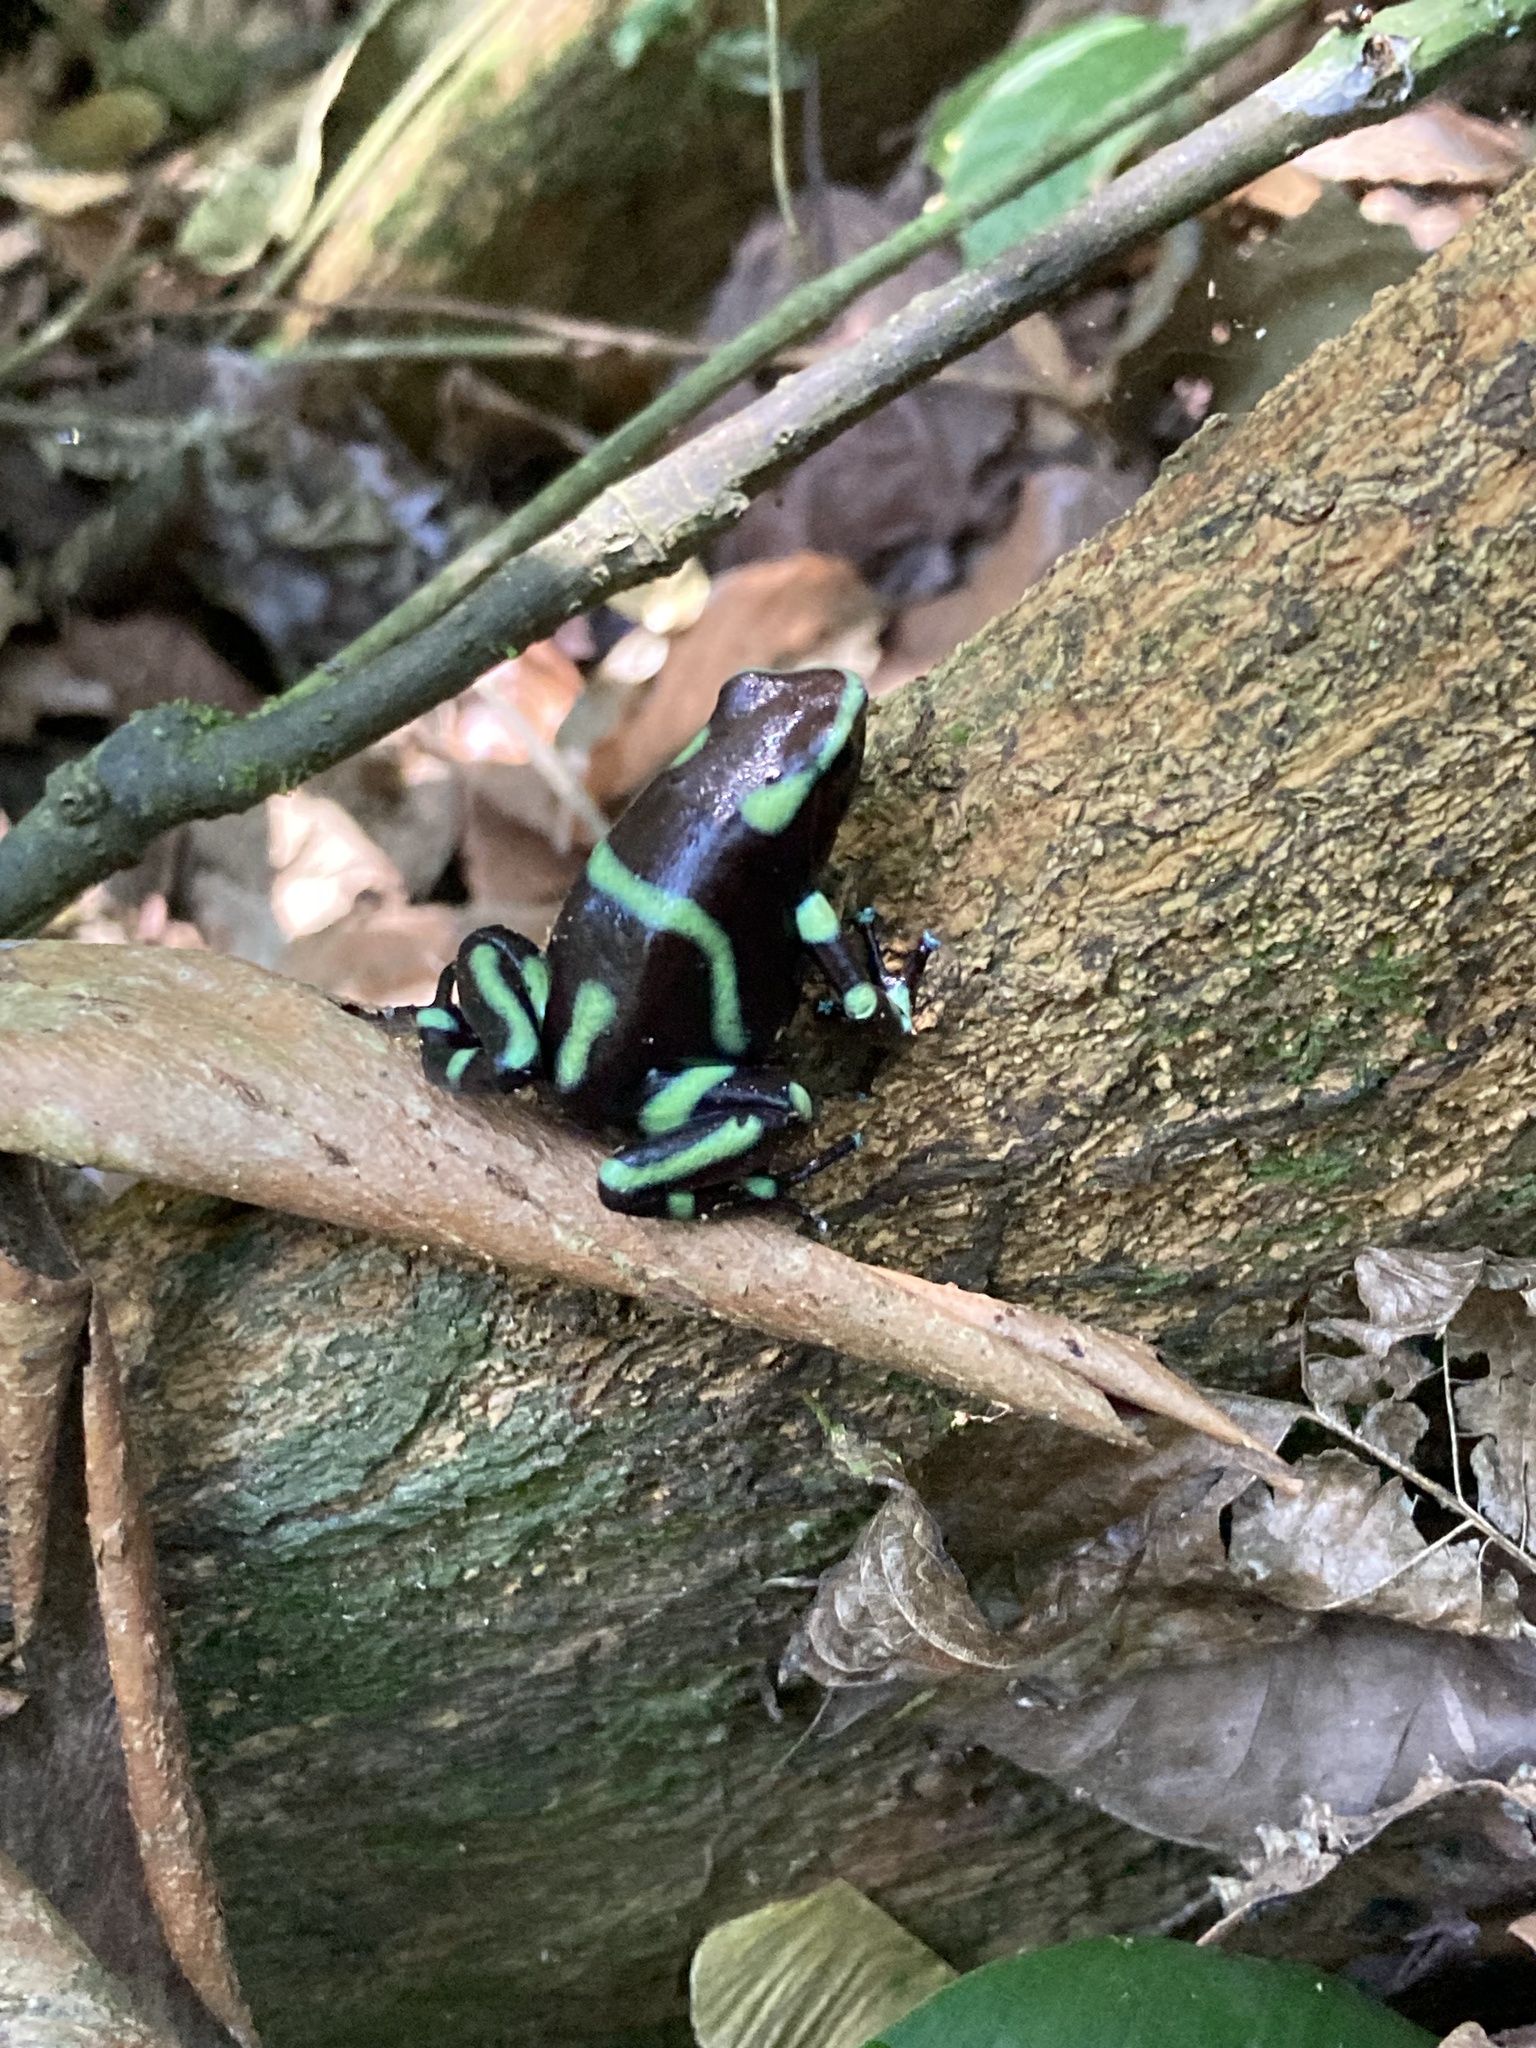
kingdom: Animalia
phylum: Chordata
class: Amphibia
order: Anura
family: Dendrobatidae
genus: Dendrobates
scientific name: Dendrobates auratus
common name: Green and black poison dart frog
